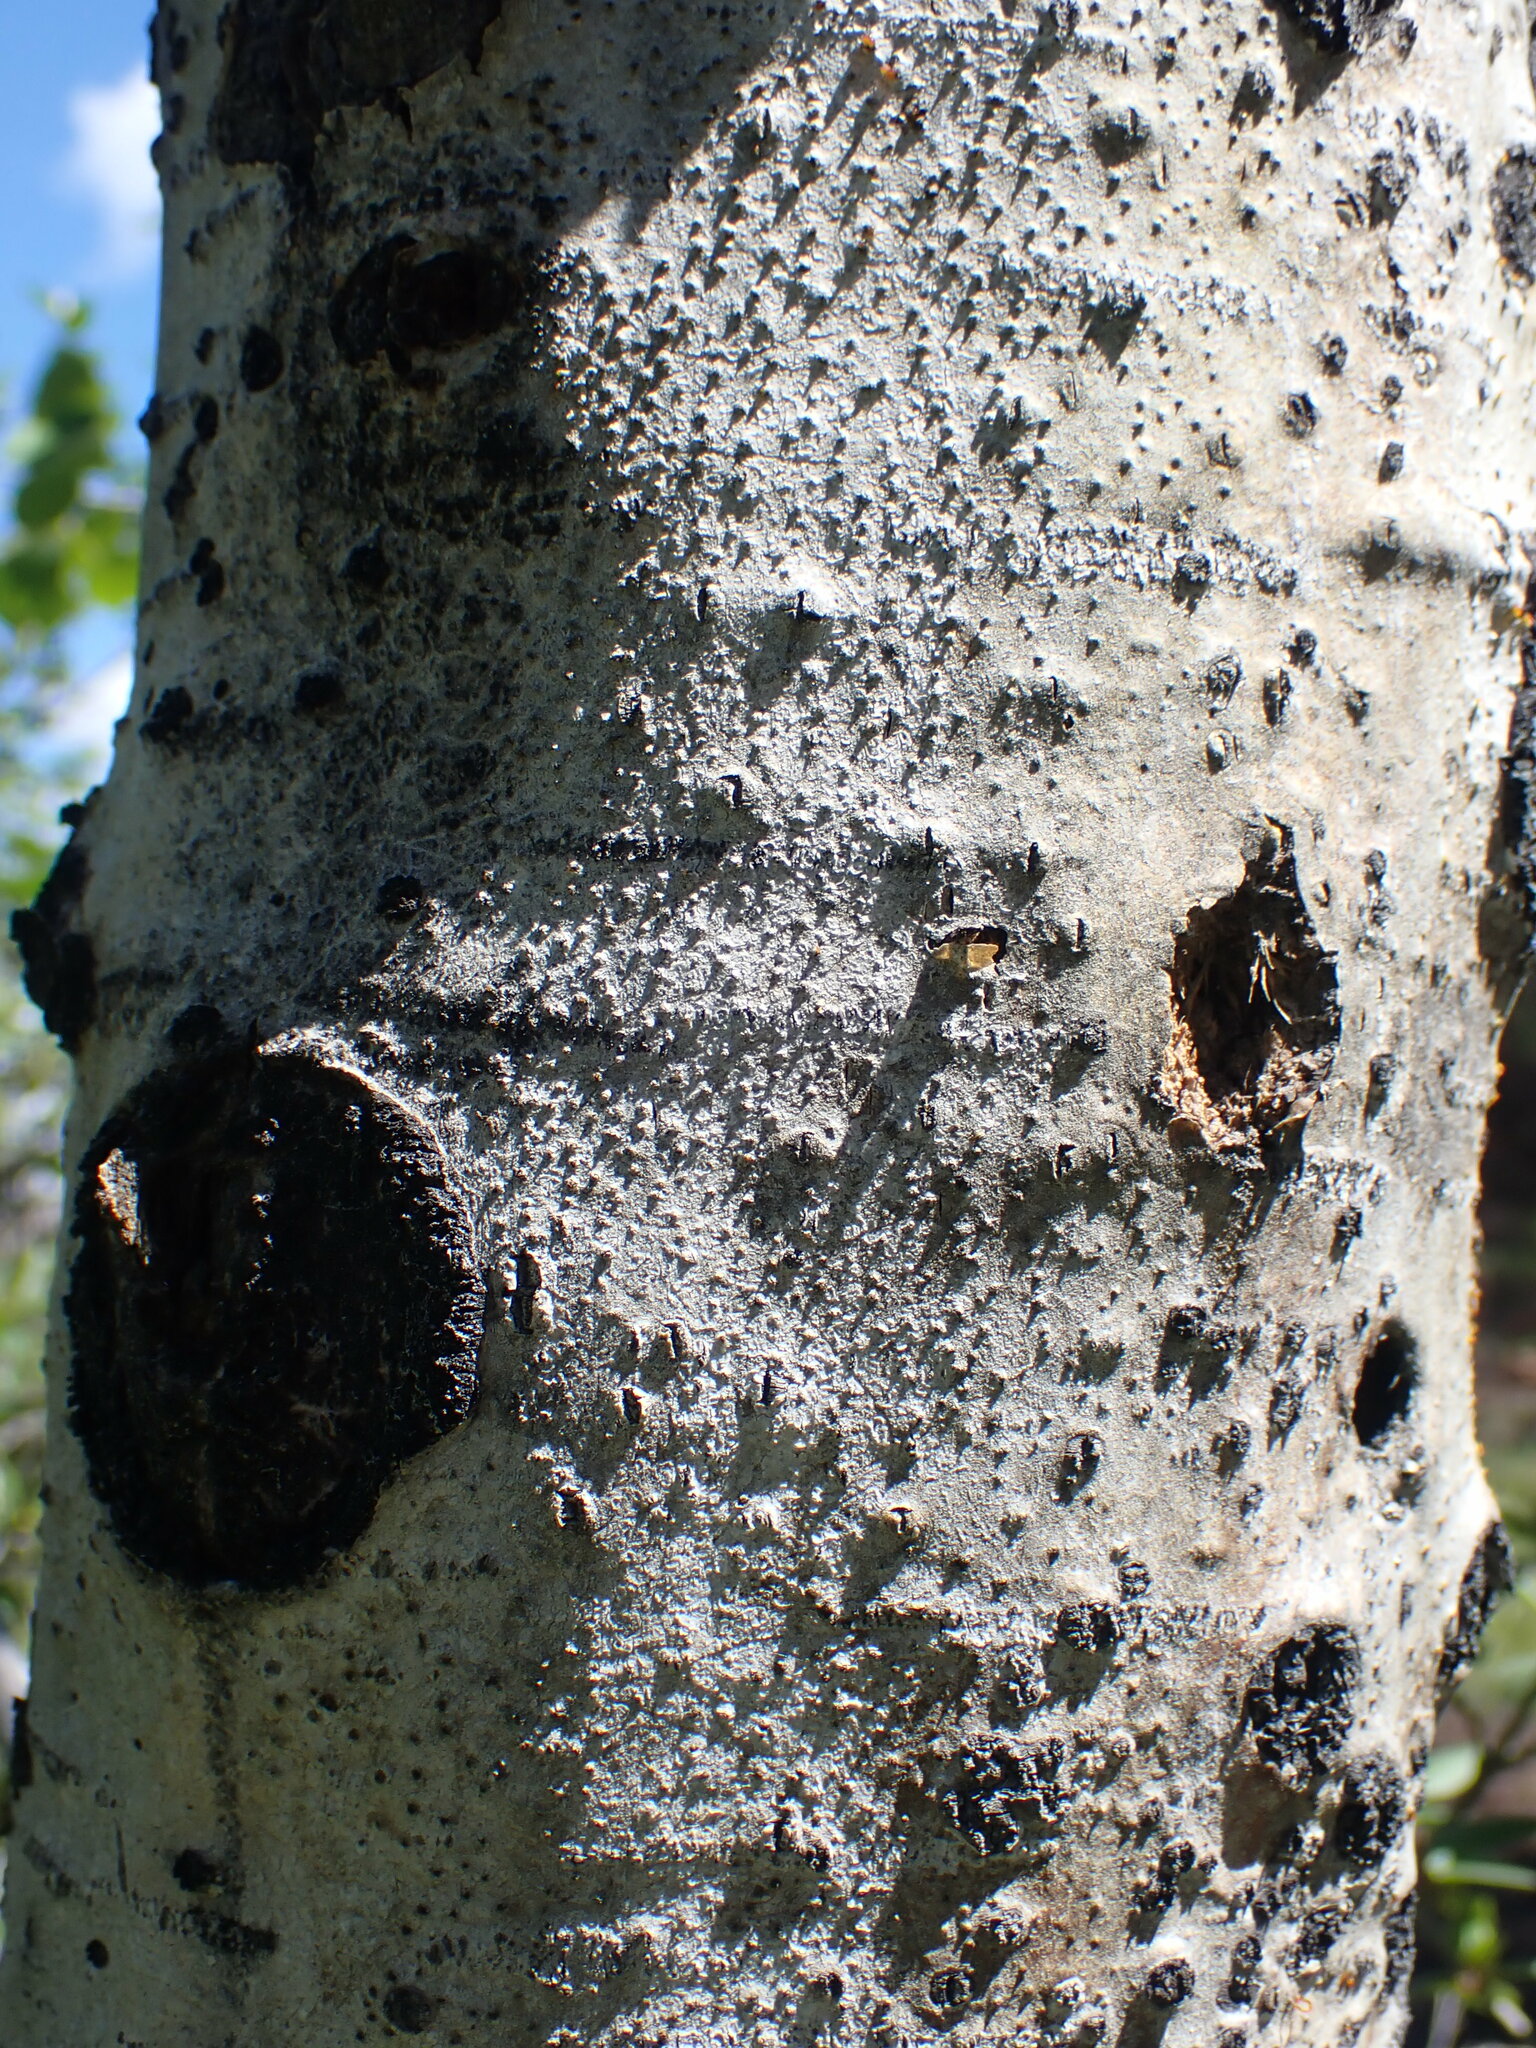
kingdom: Plantae
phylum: Tracheophyta
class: Magnoliopsida
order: Malpighiales
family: Salicaceae
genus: Populus
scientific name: Populus tremuloides
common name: Quaking aspen
